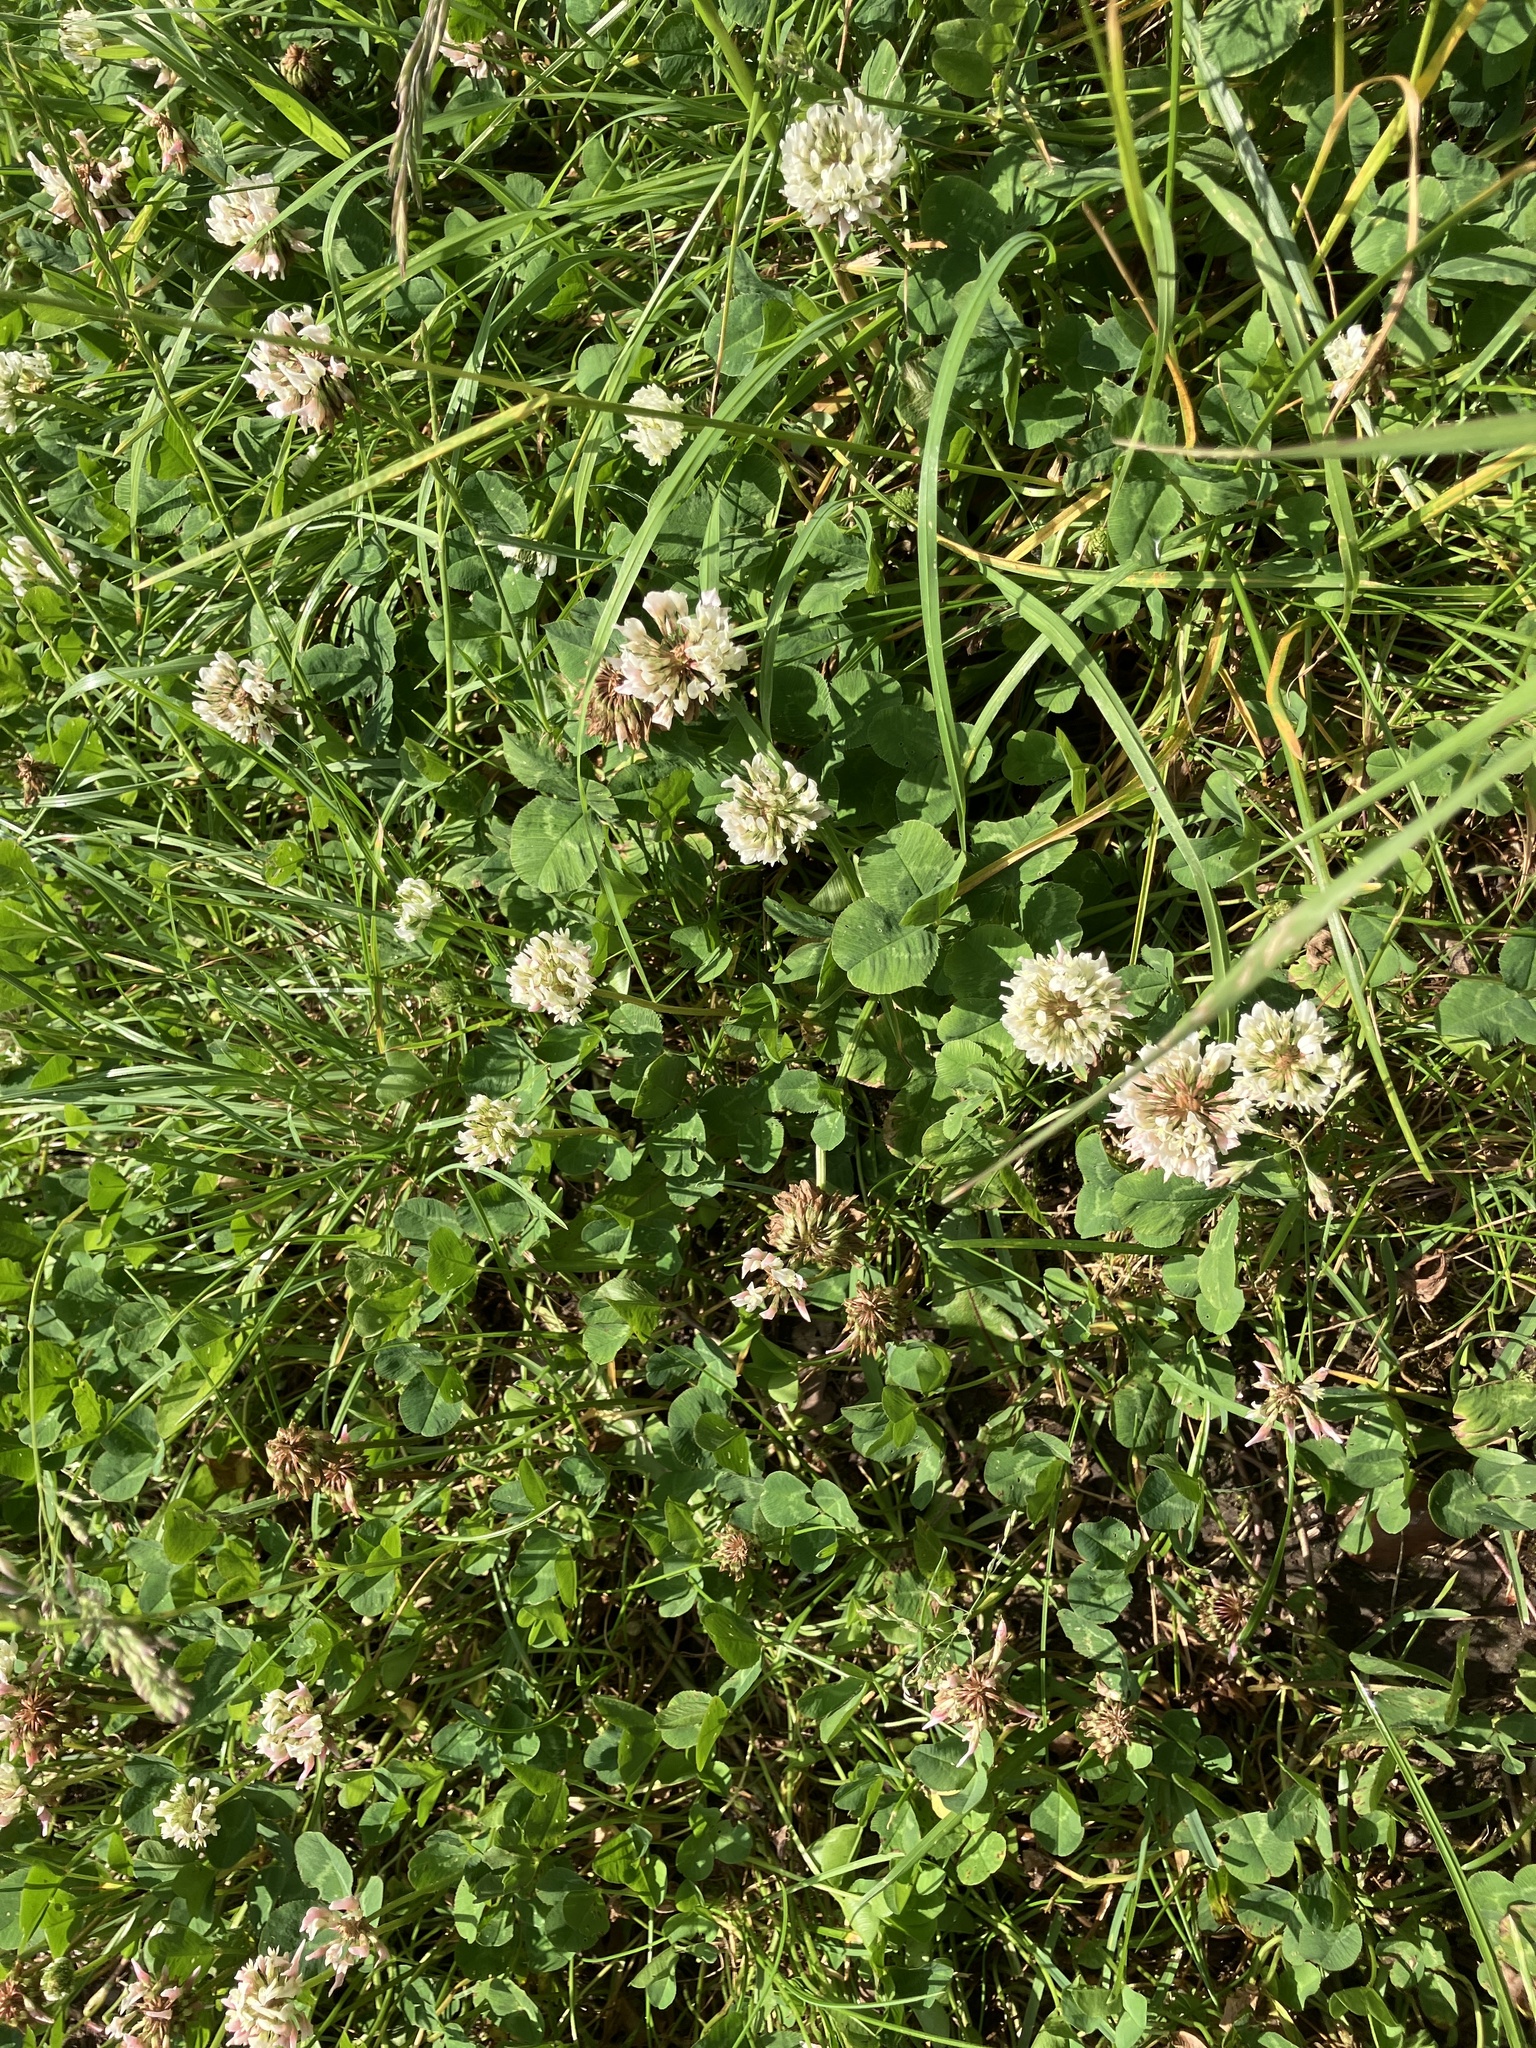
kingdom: Plantae
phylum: Tracheophyta
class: Magnoliopsida
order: Fabales
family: Fabaceae
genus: Trifolium
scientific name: Trifolium repens
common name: White clover
